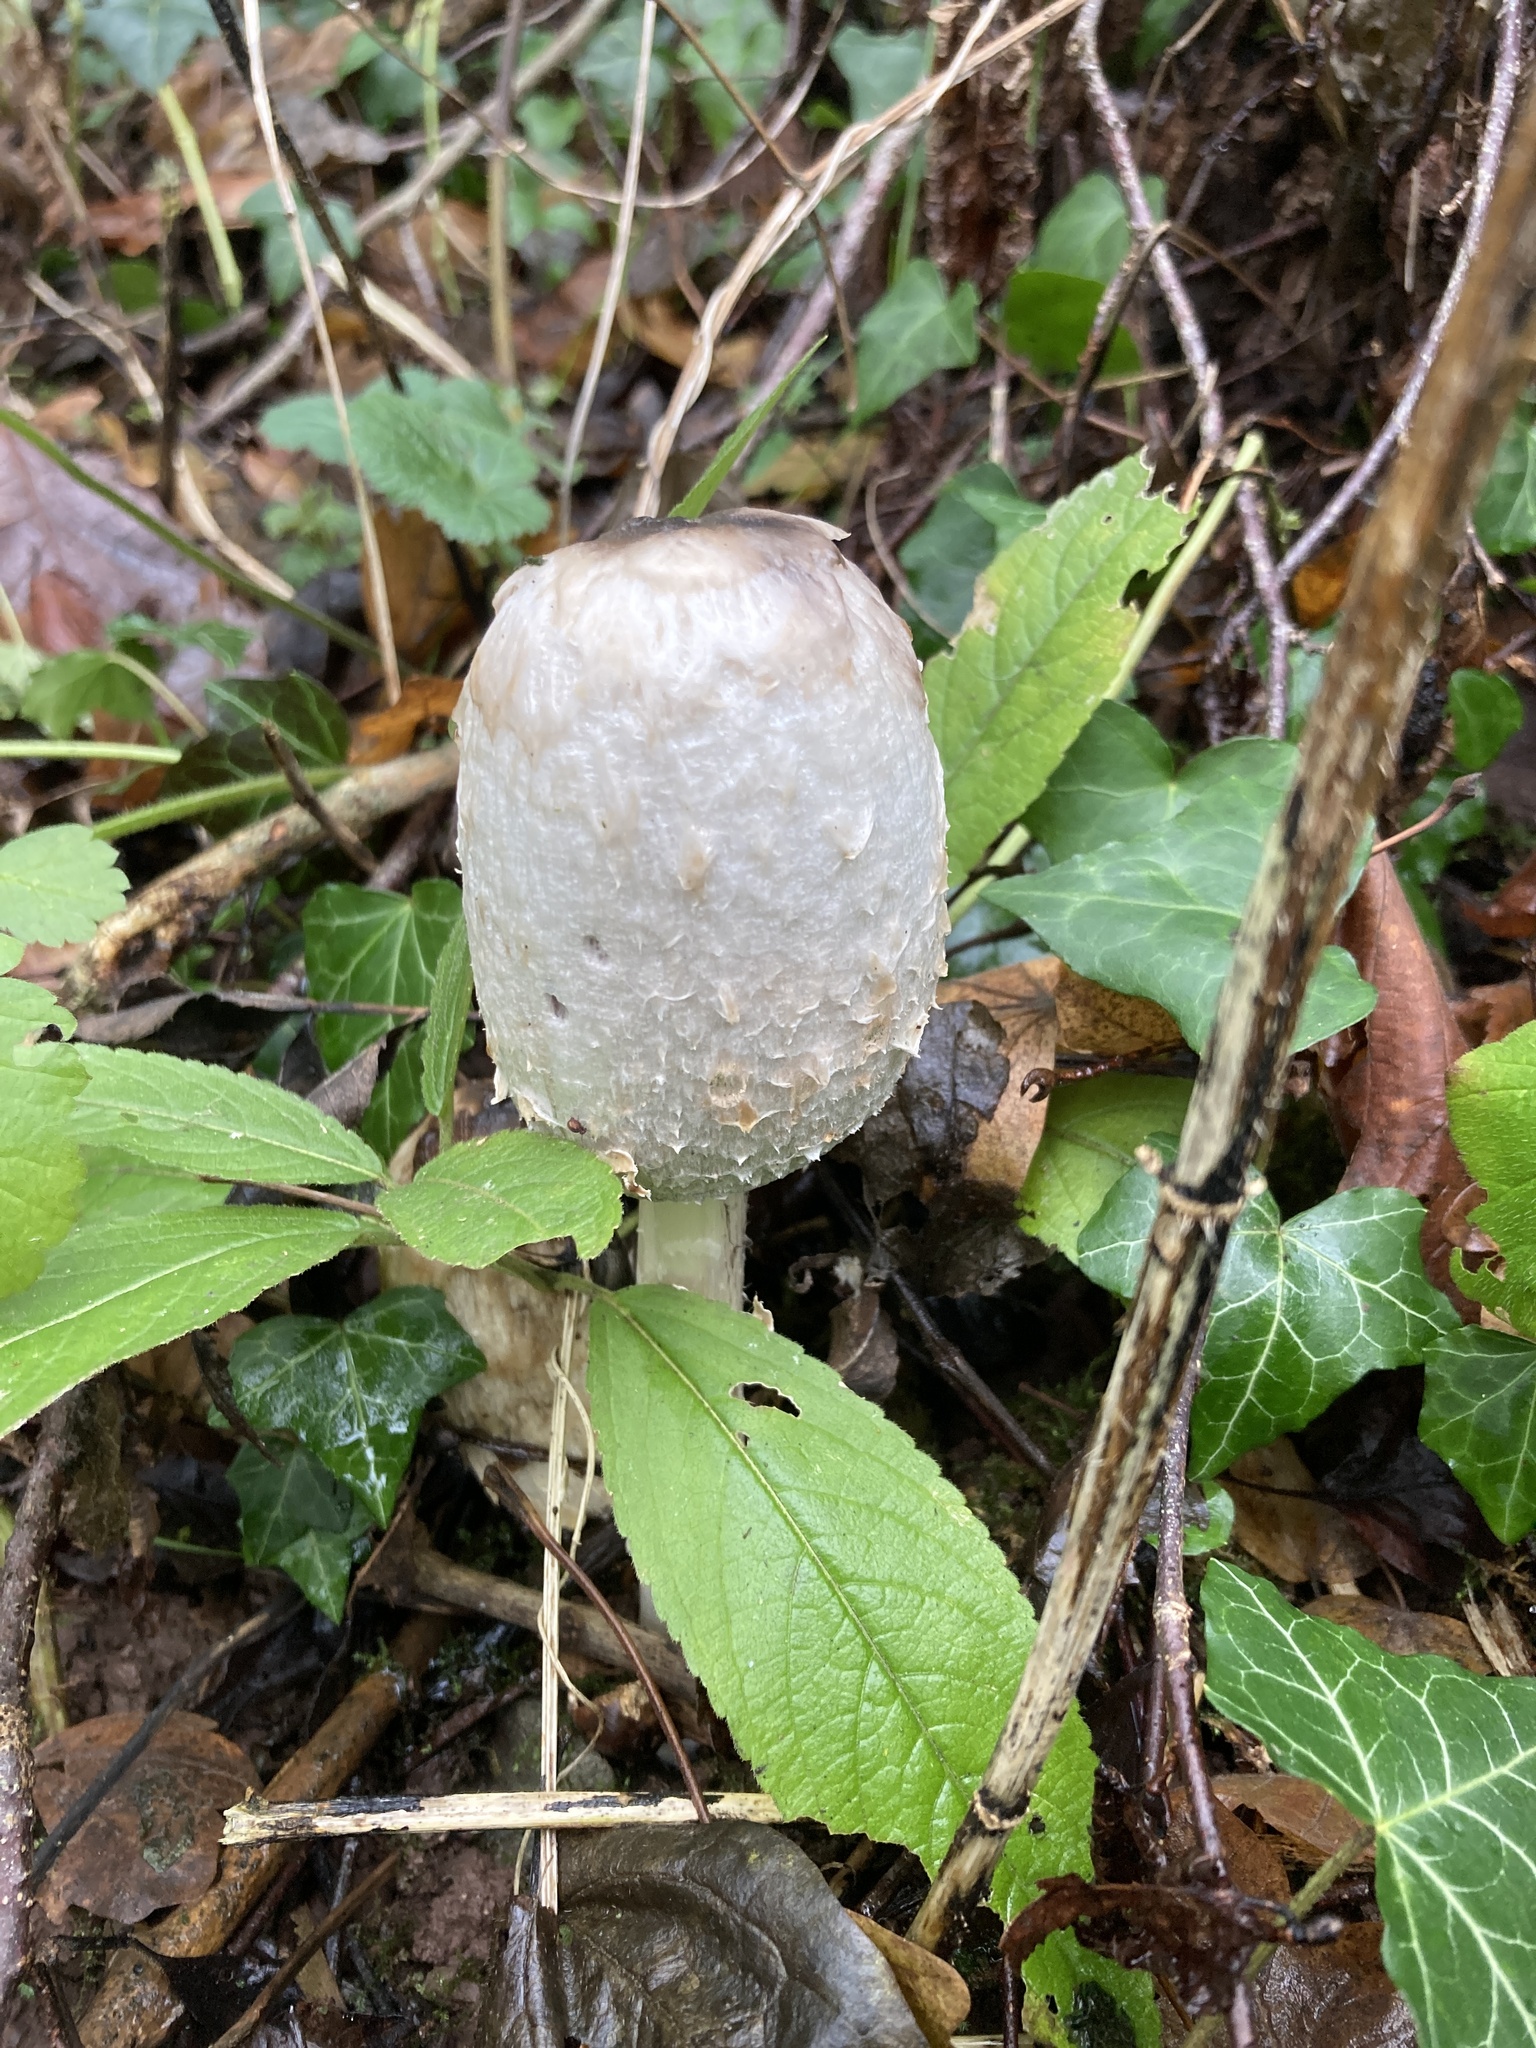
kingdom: Fungi
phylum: Basidiomycota
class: Agaricomycetes
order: Agaricales
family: Agaricaceae
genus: Coprinus
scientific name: Coprinus comatus
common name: Lawyer's wig
